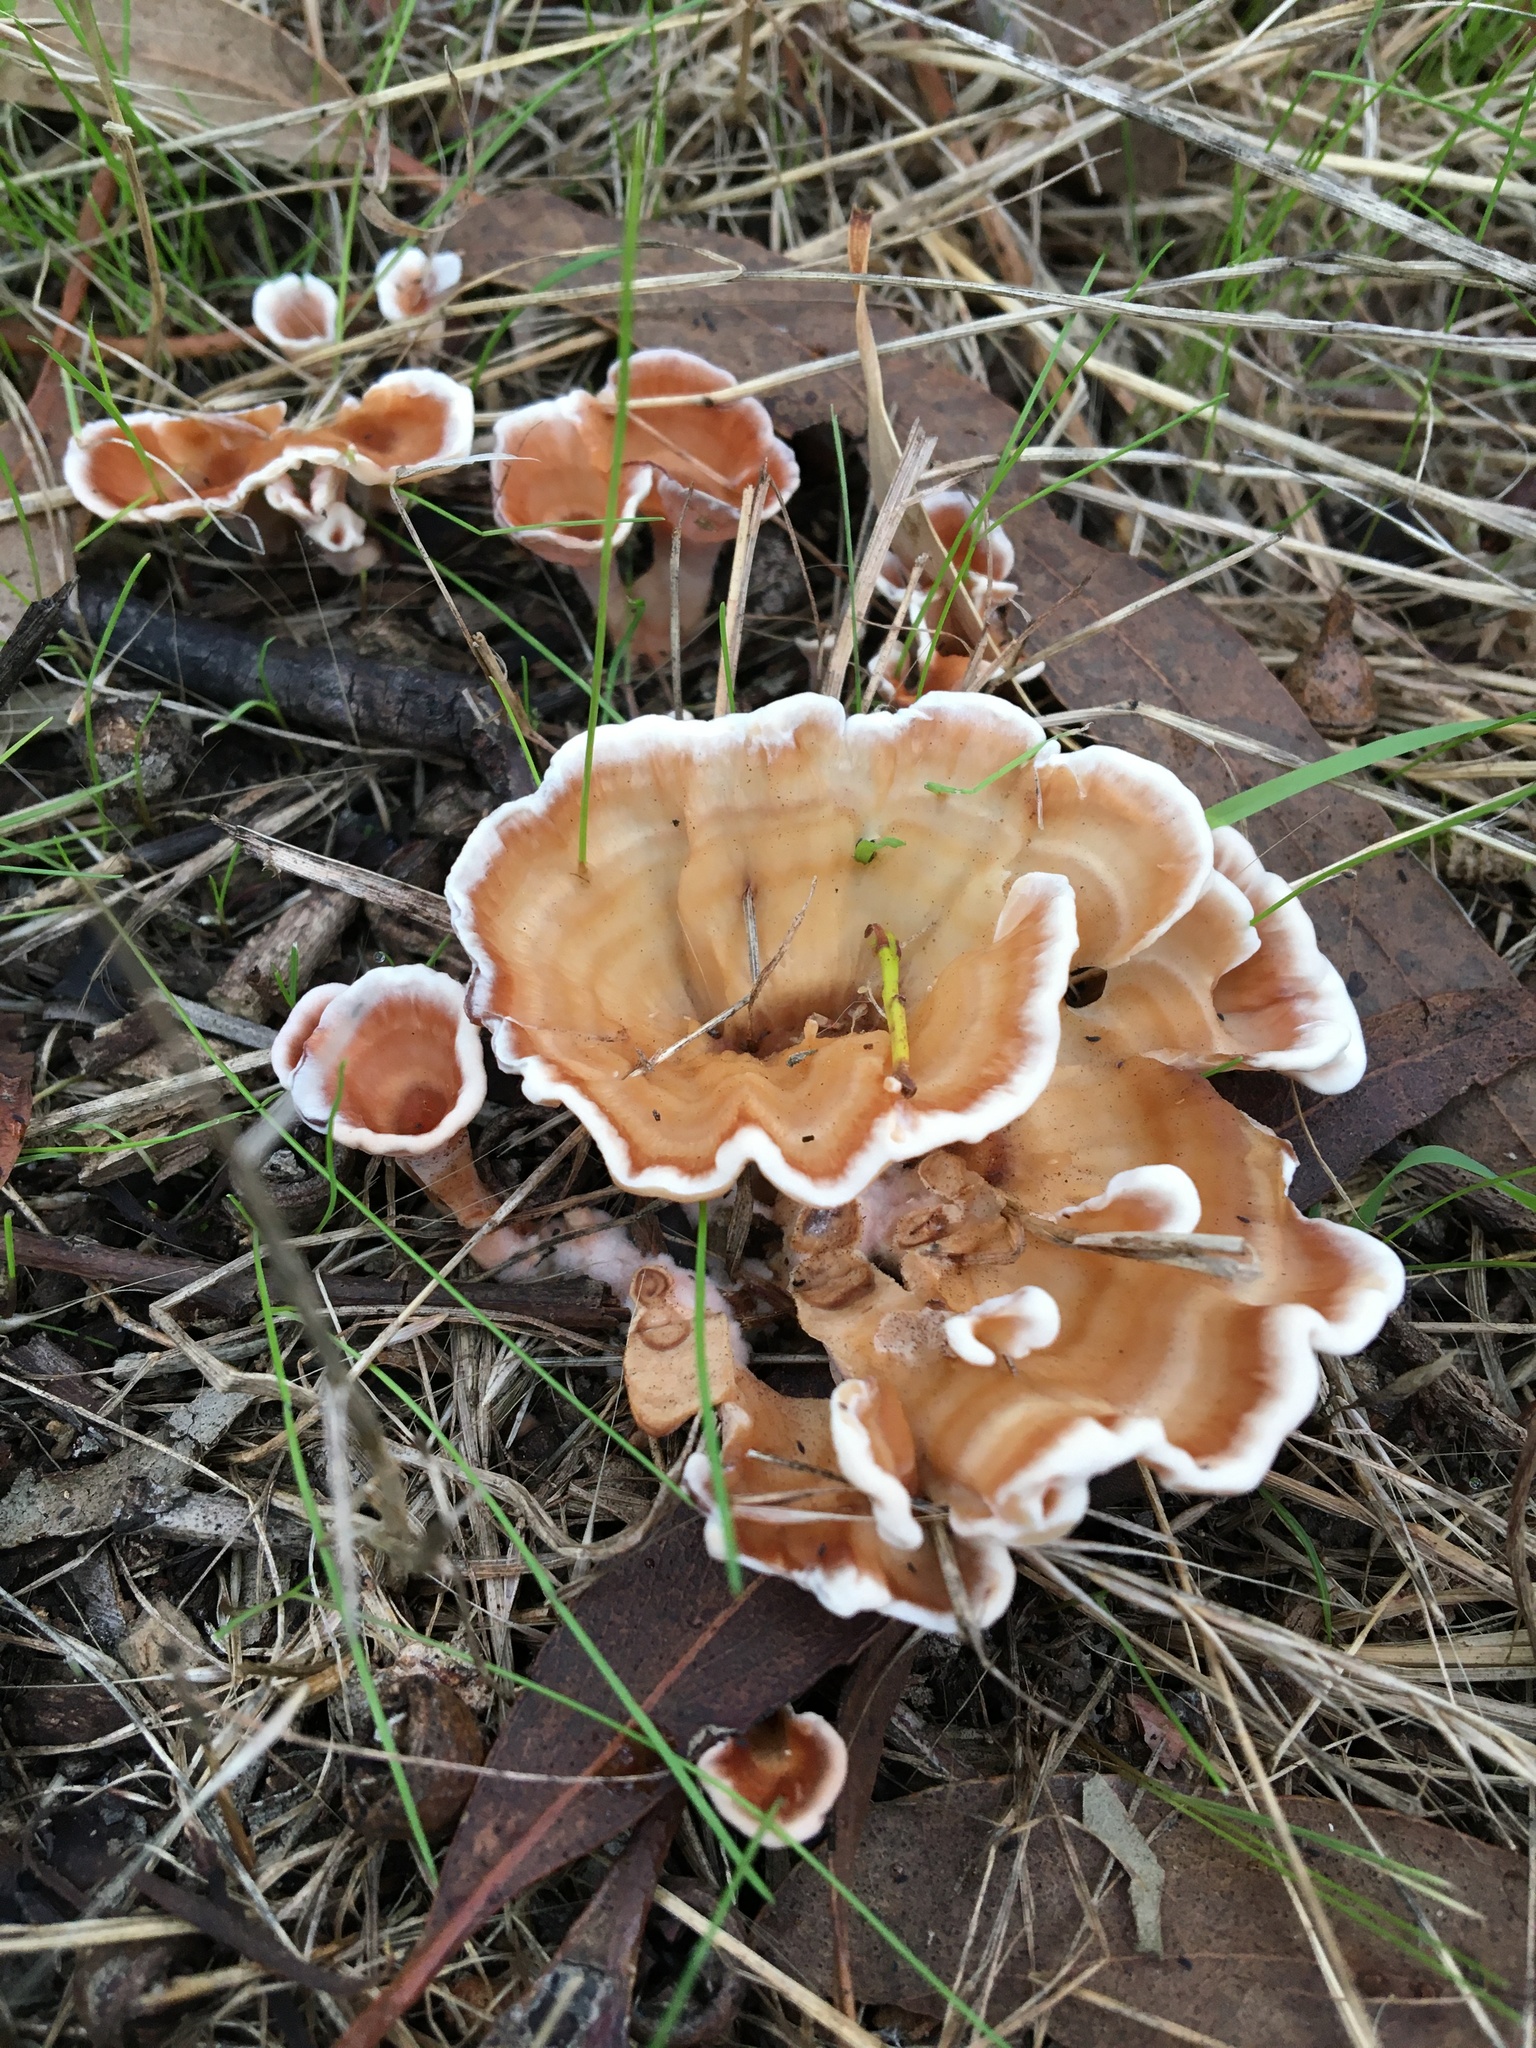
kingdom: Fungi
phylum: Basidiomycota
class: Agaricomycetes
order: Polyporales
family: Podoscyphaceae
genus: Podoscypha
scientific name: Podoscypha petalodes
